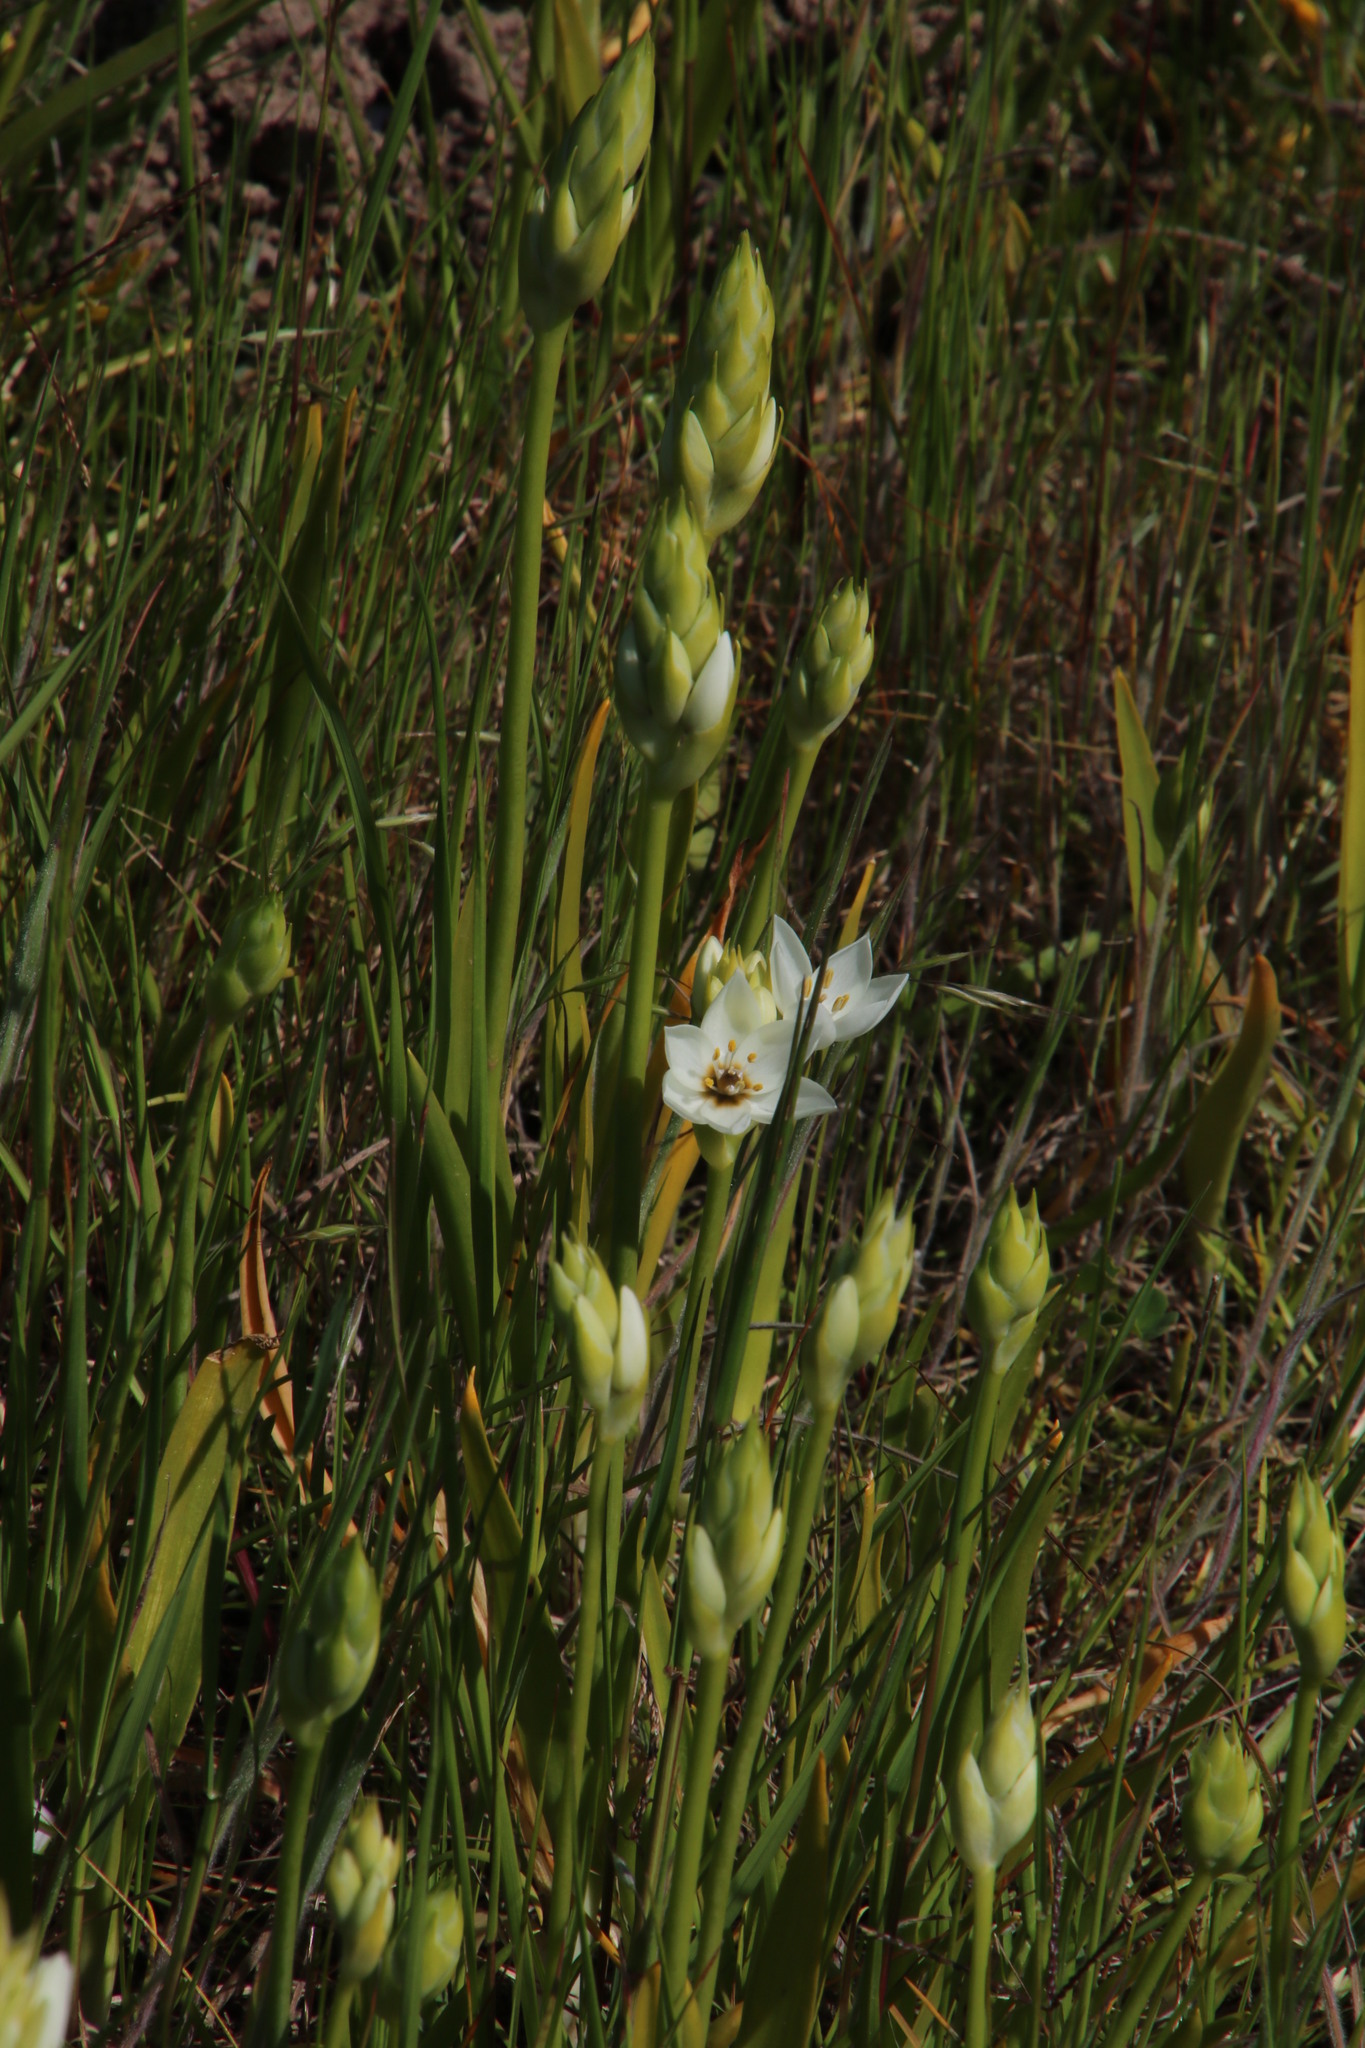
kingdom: Plantae
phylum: Tracheophyta
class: Liliopsida
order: Asparagales
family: Asparagaceae
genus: Ornithogalum
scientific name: Ornithogalum thyrsoides
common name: Chincherinchee
